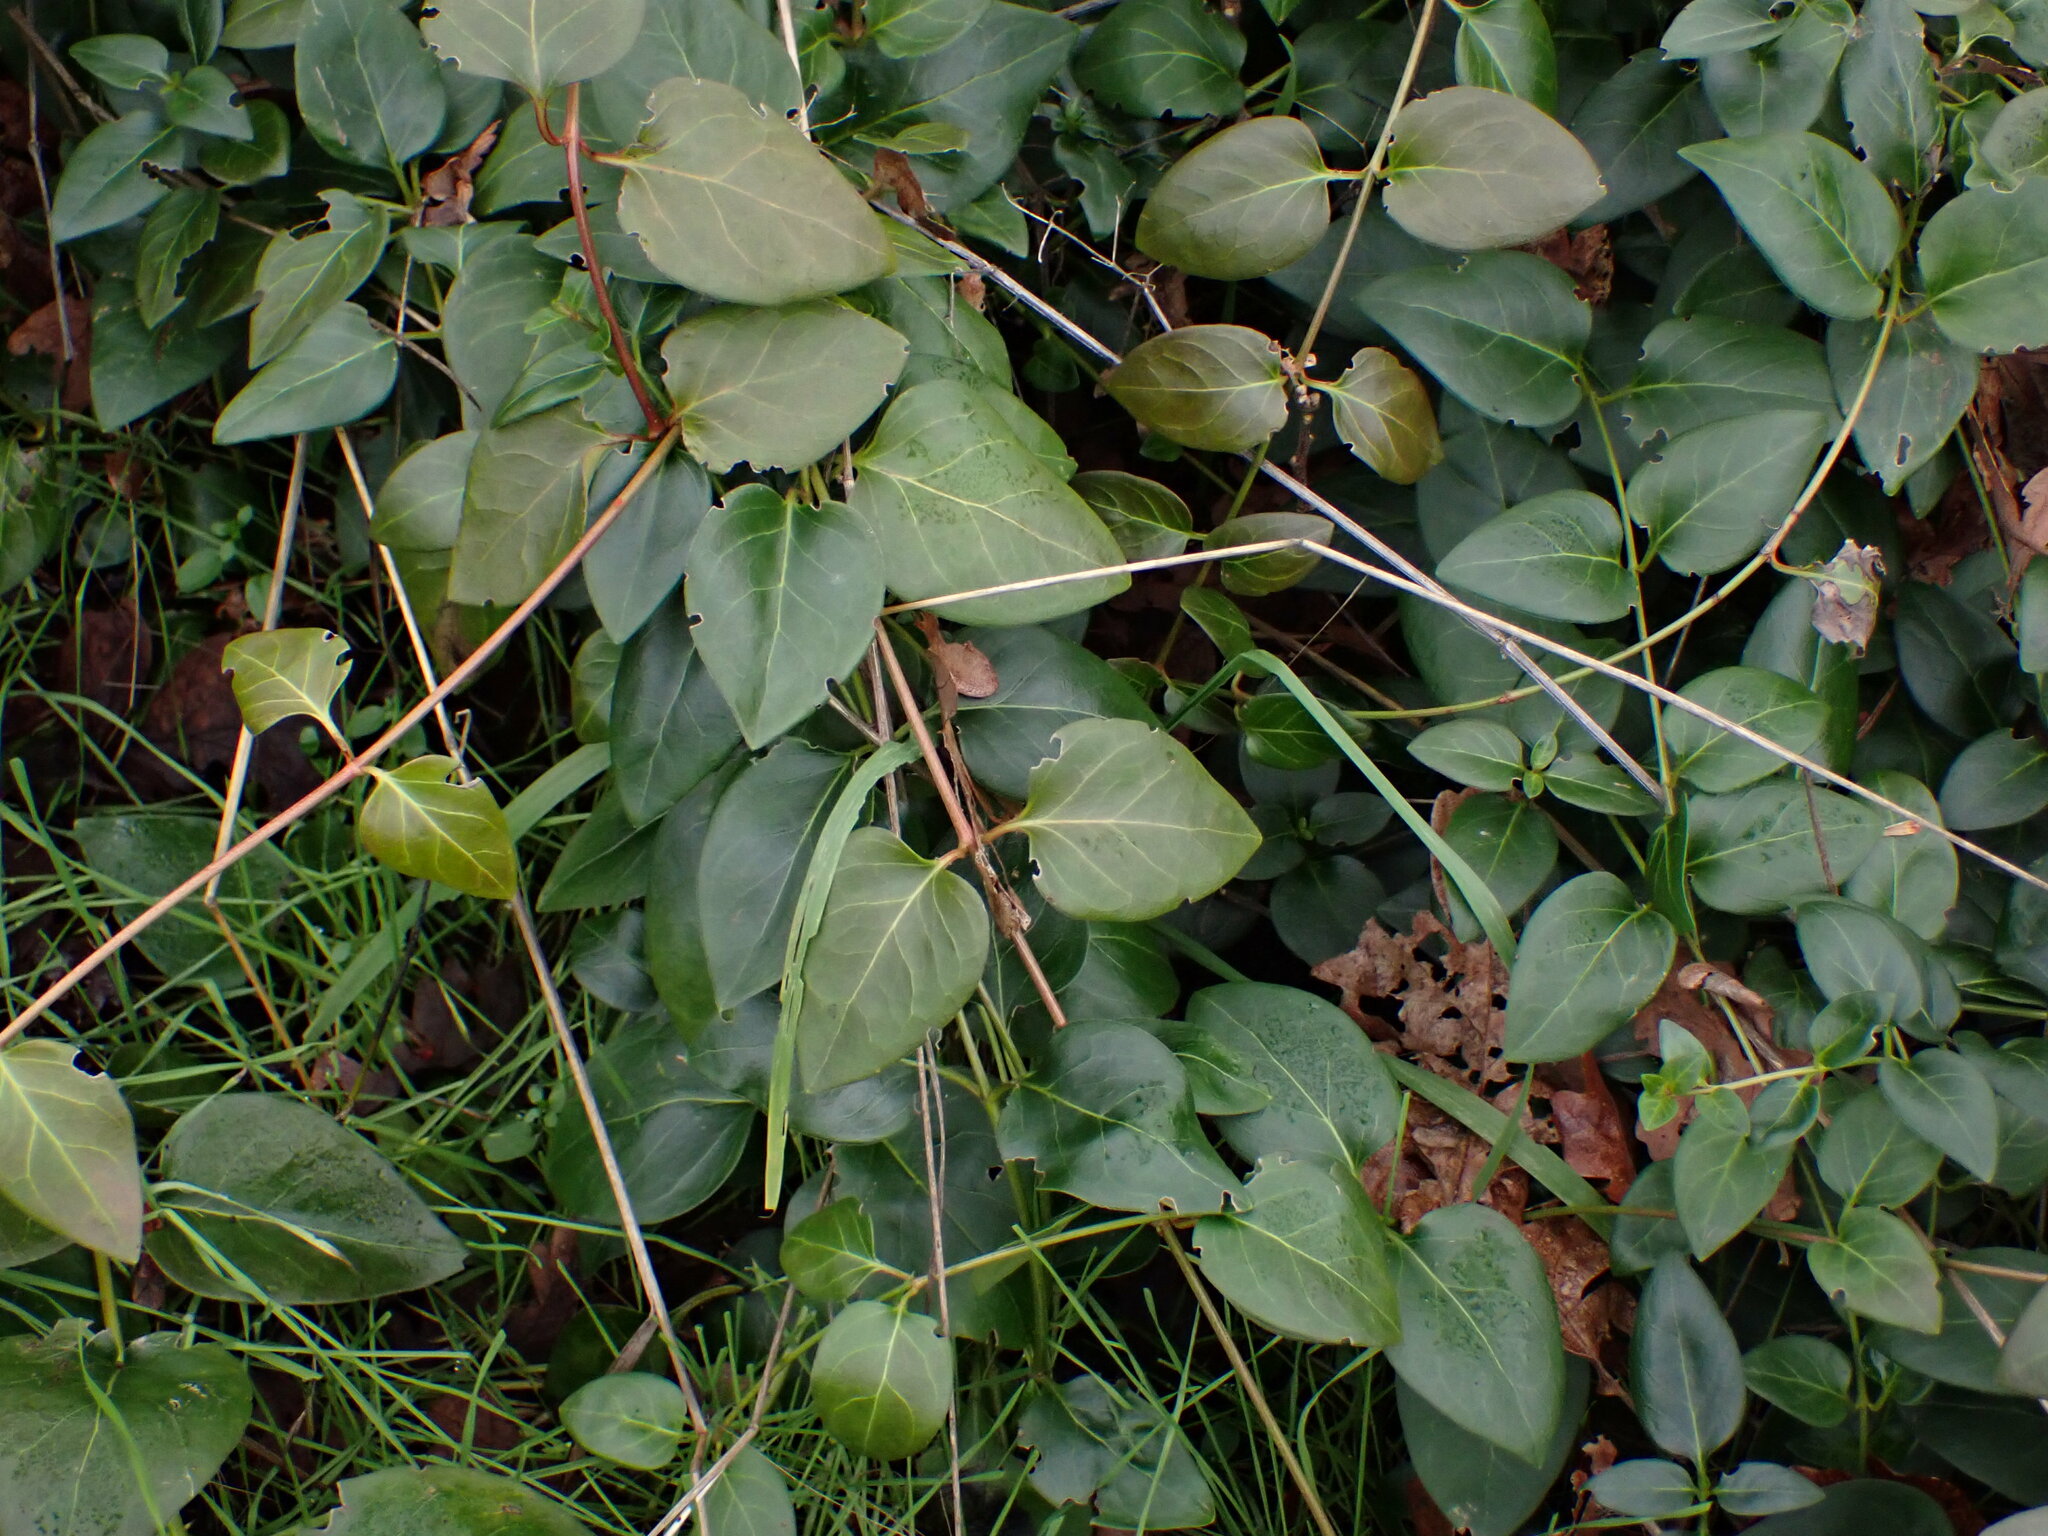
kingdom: Plantae
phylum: Tracheophyta
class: Magnoliopsida
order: Gentianales
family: Apocynaceae
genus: Vinca
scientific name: Vinca major
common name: Greater periwinkle
